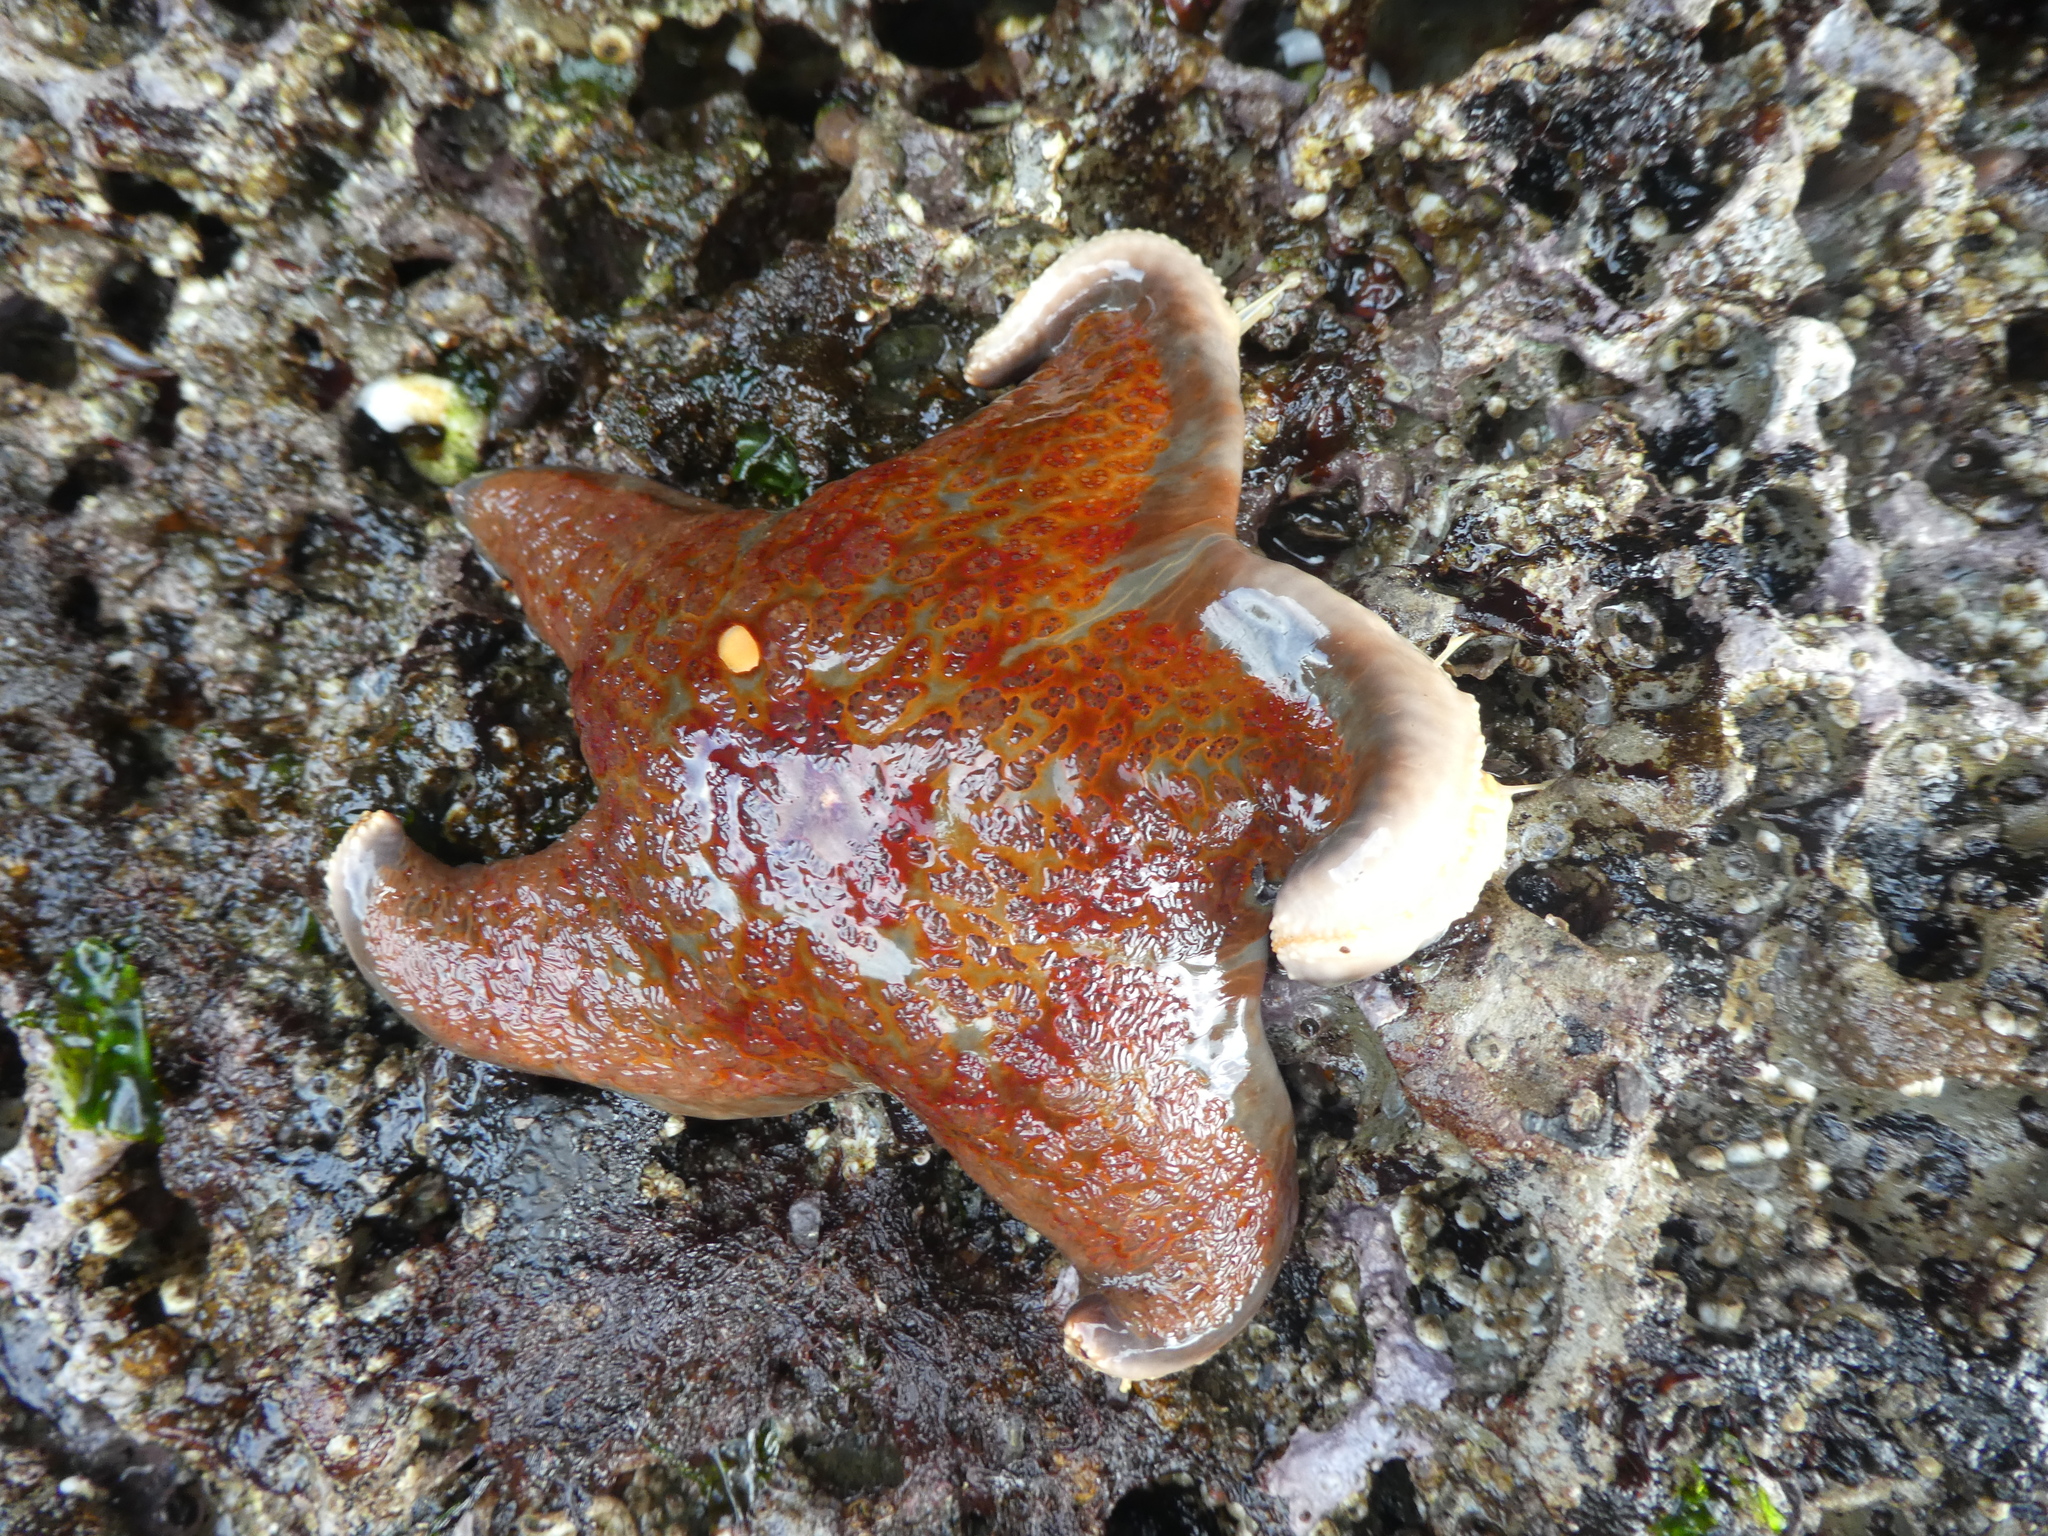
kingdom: Animalia
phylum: Echinodermata
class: Asteroidea
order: Valvatida
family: Asteropseidae
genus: Dermasterias
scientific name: Dermasterias imbricata
